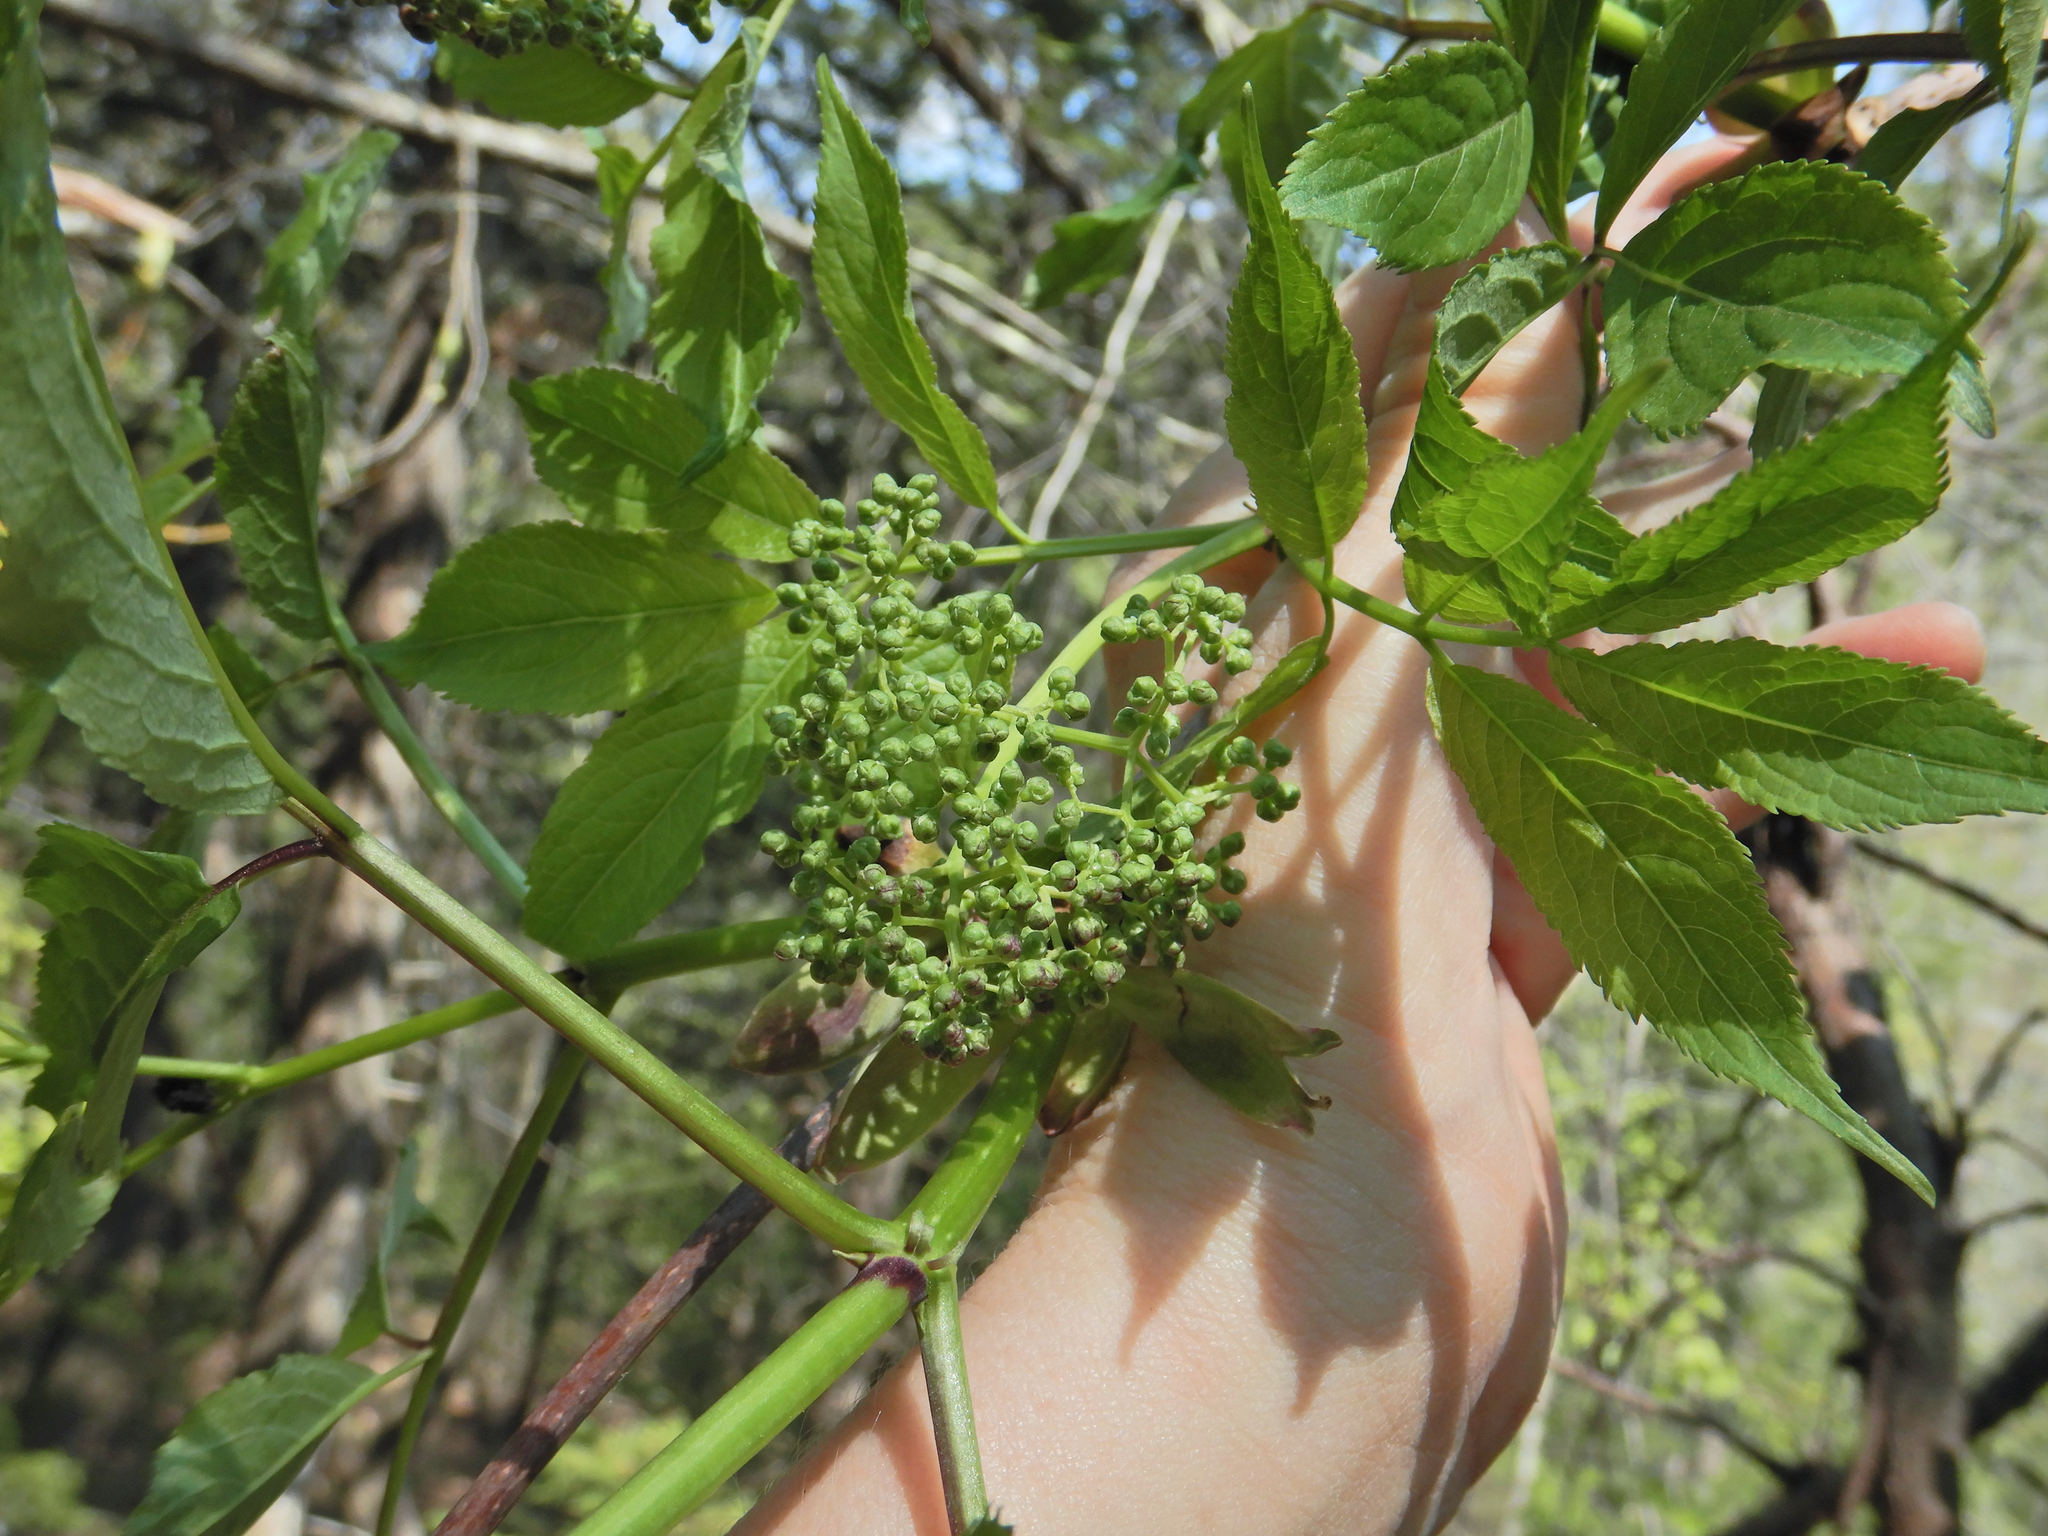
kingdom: Plantae
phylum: Tracheophyta
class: Magnoliopsida
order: Dipsacales
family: Viburnaceae
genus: Sambucus
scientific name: Sambucus racemosa
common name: Red-berried elder
